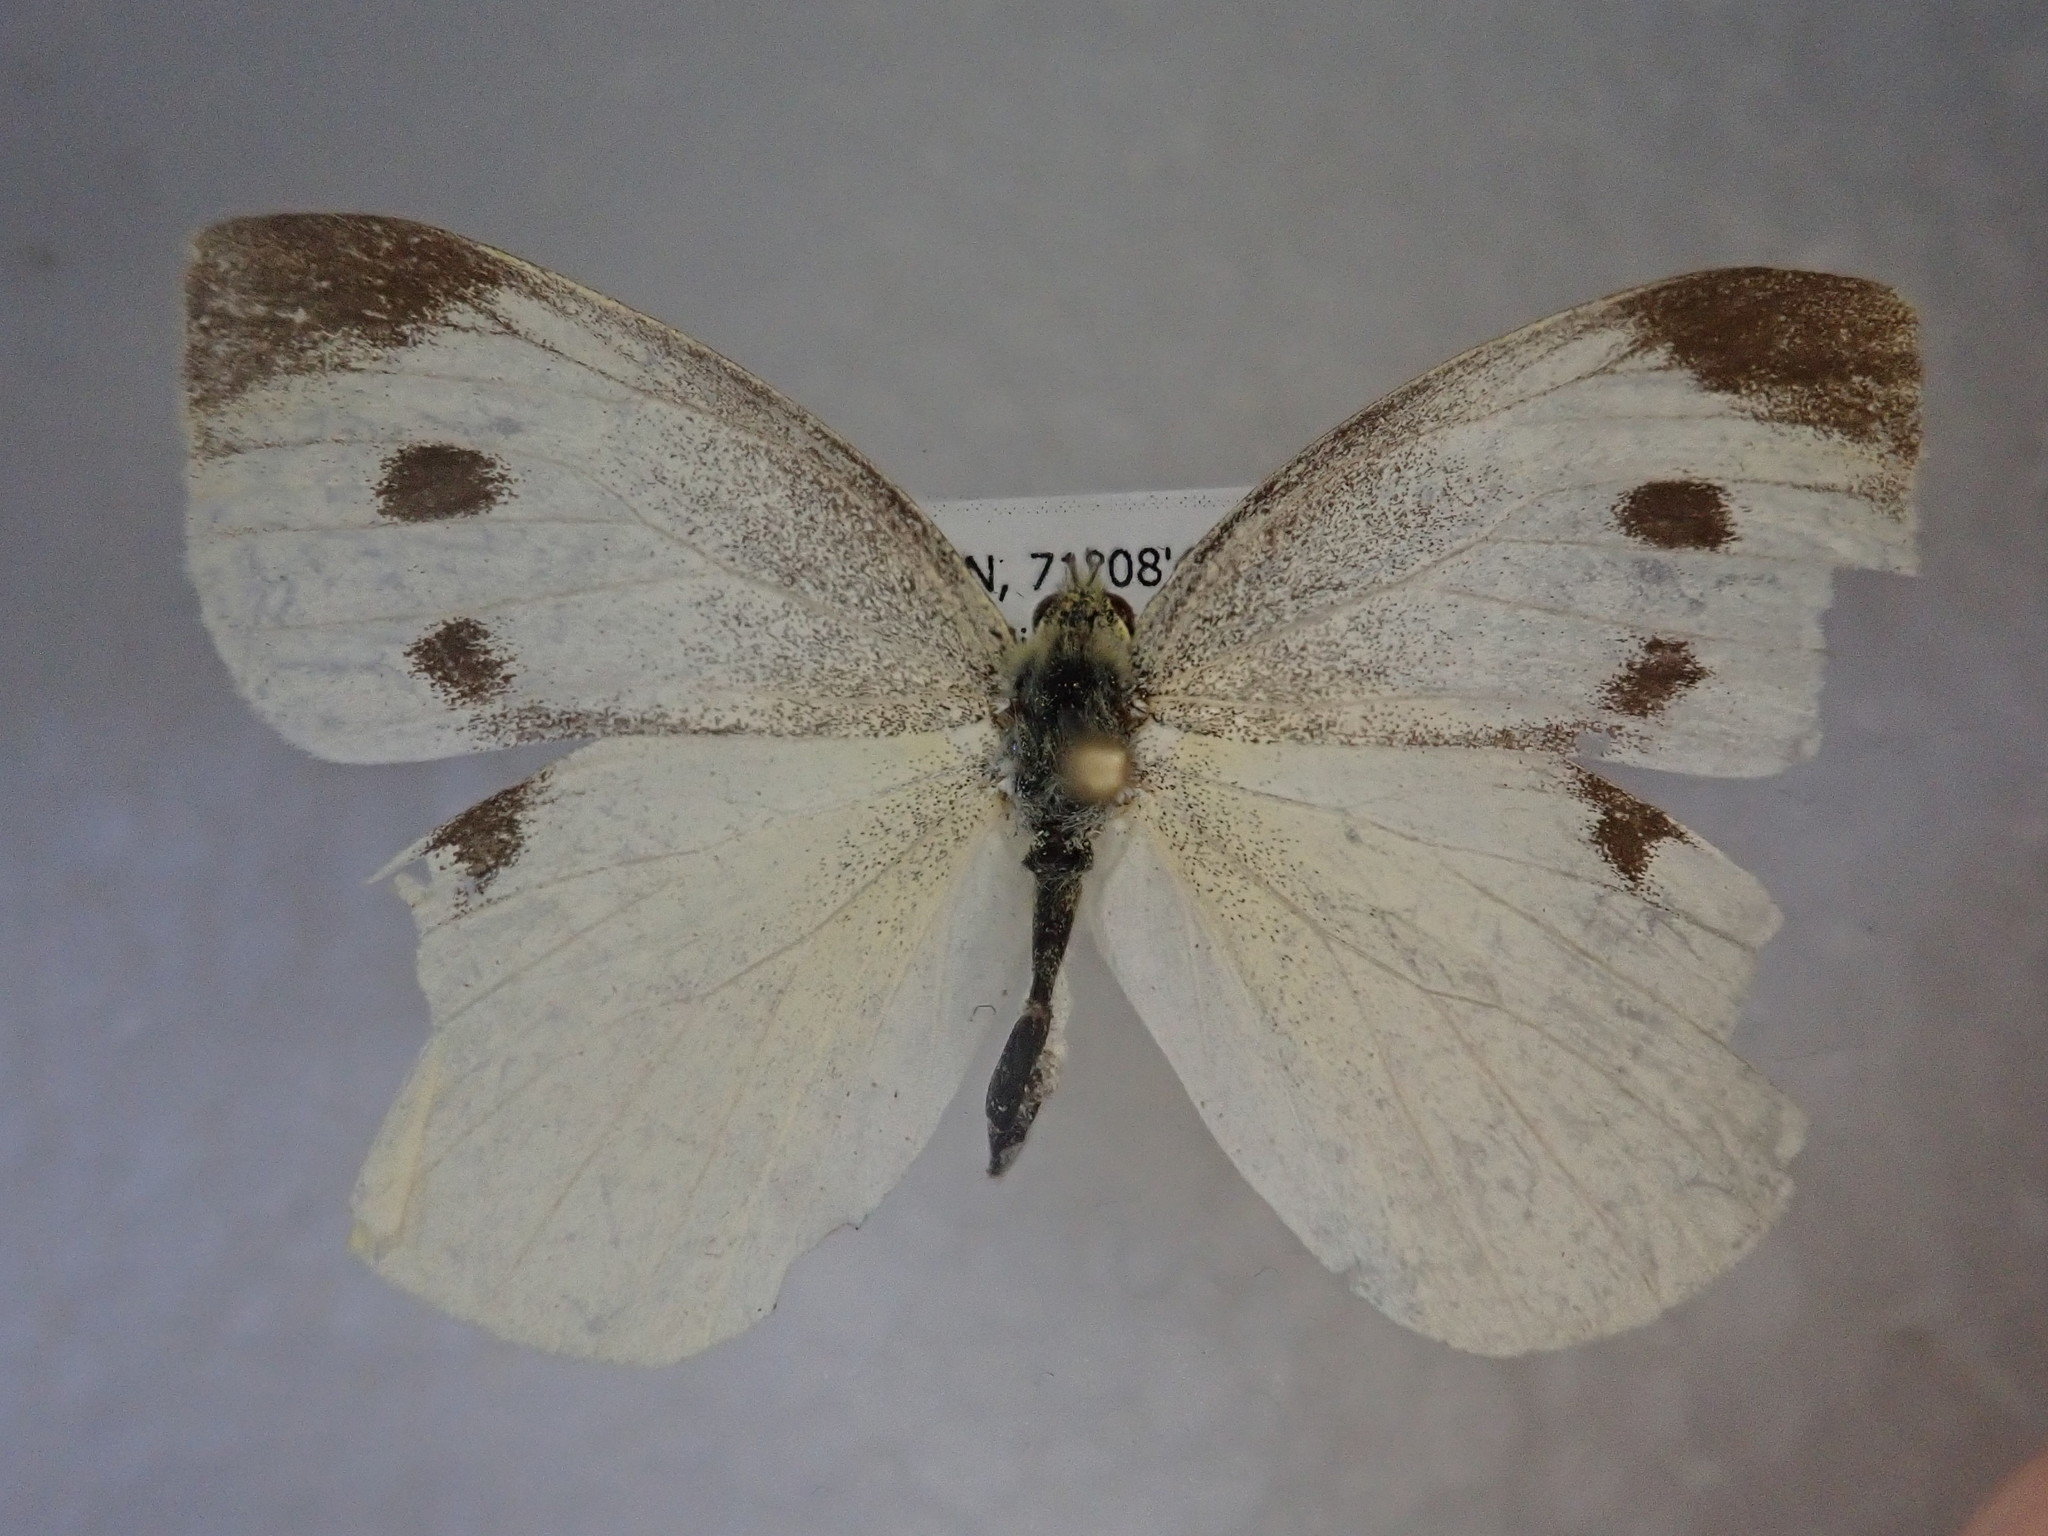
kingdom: Animalia
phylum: Arthropoda
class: Insecta
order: Lepidoptera
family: Pieridae
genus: Pieris
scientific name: Pieris rapae
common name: Small white
